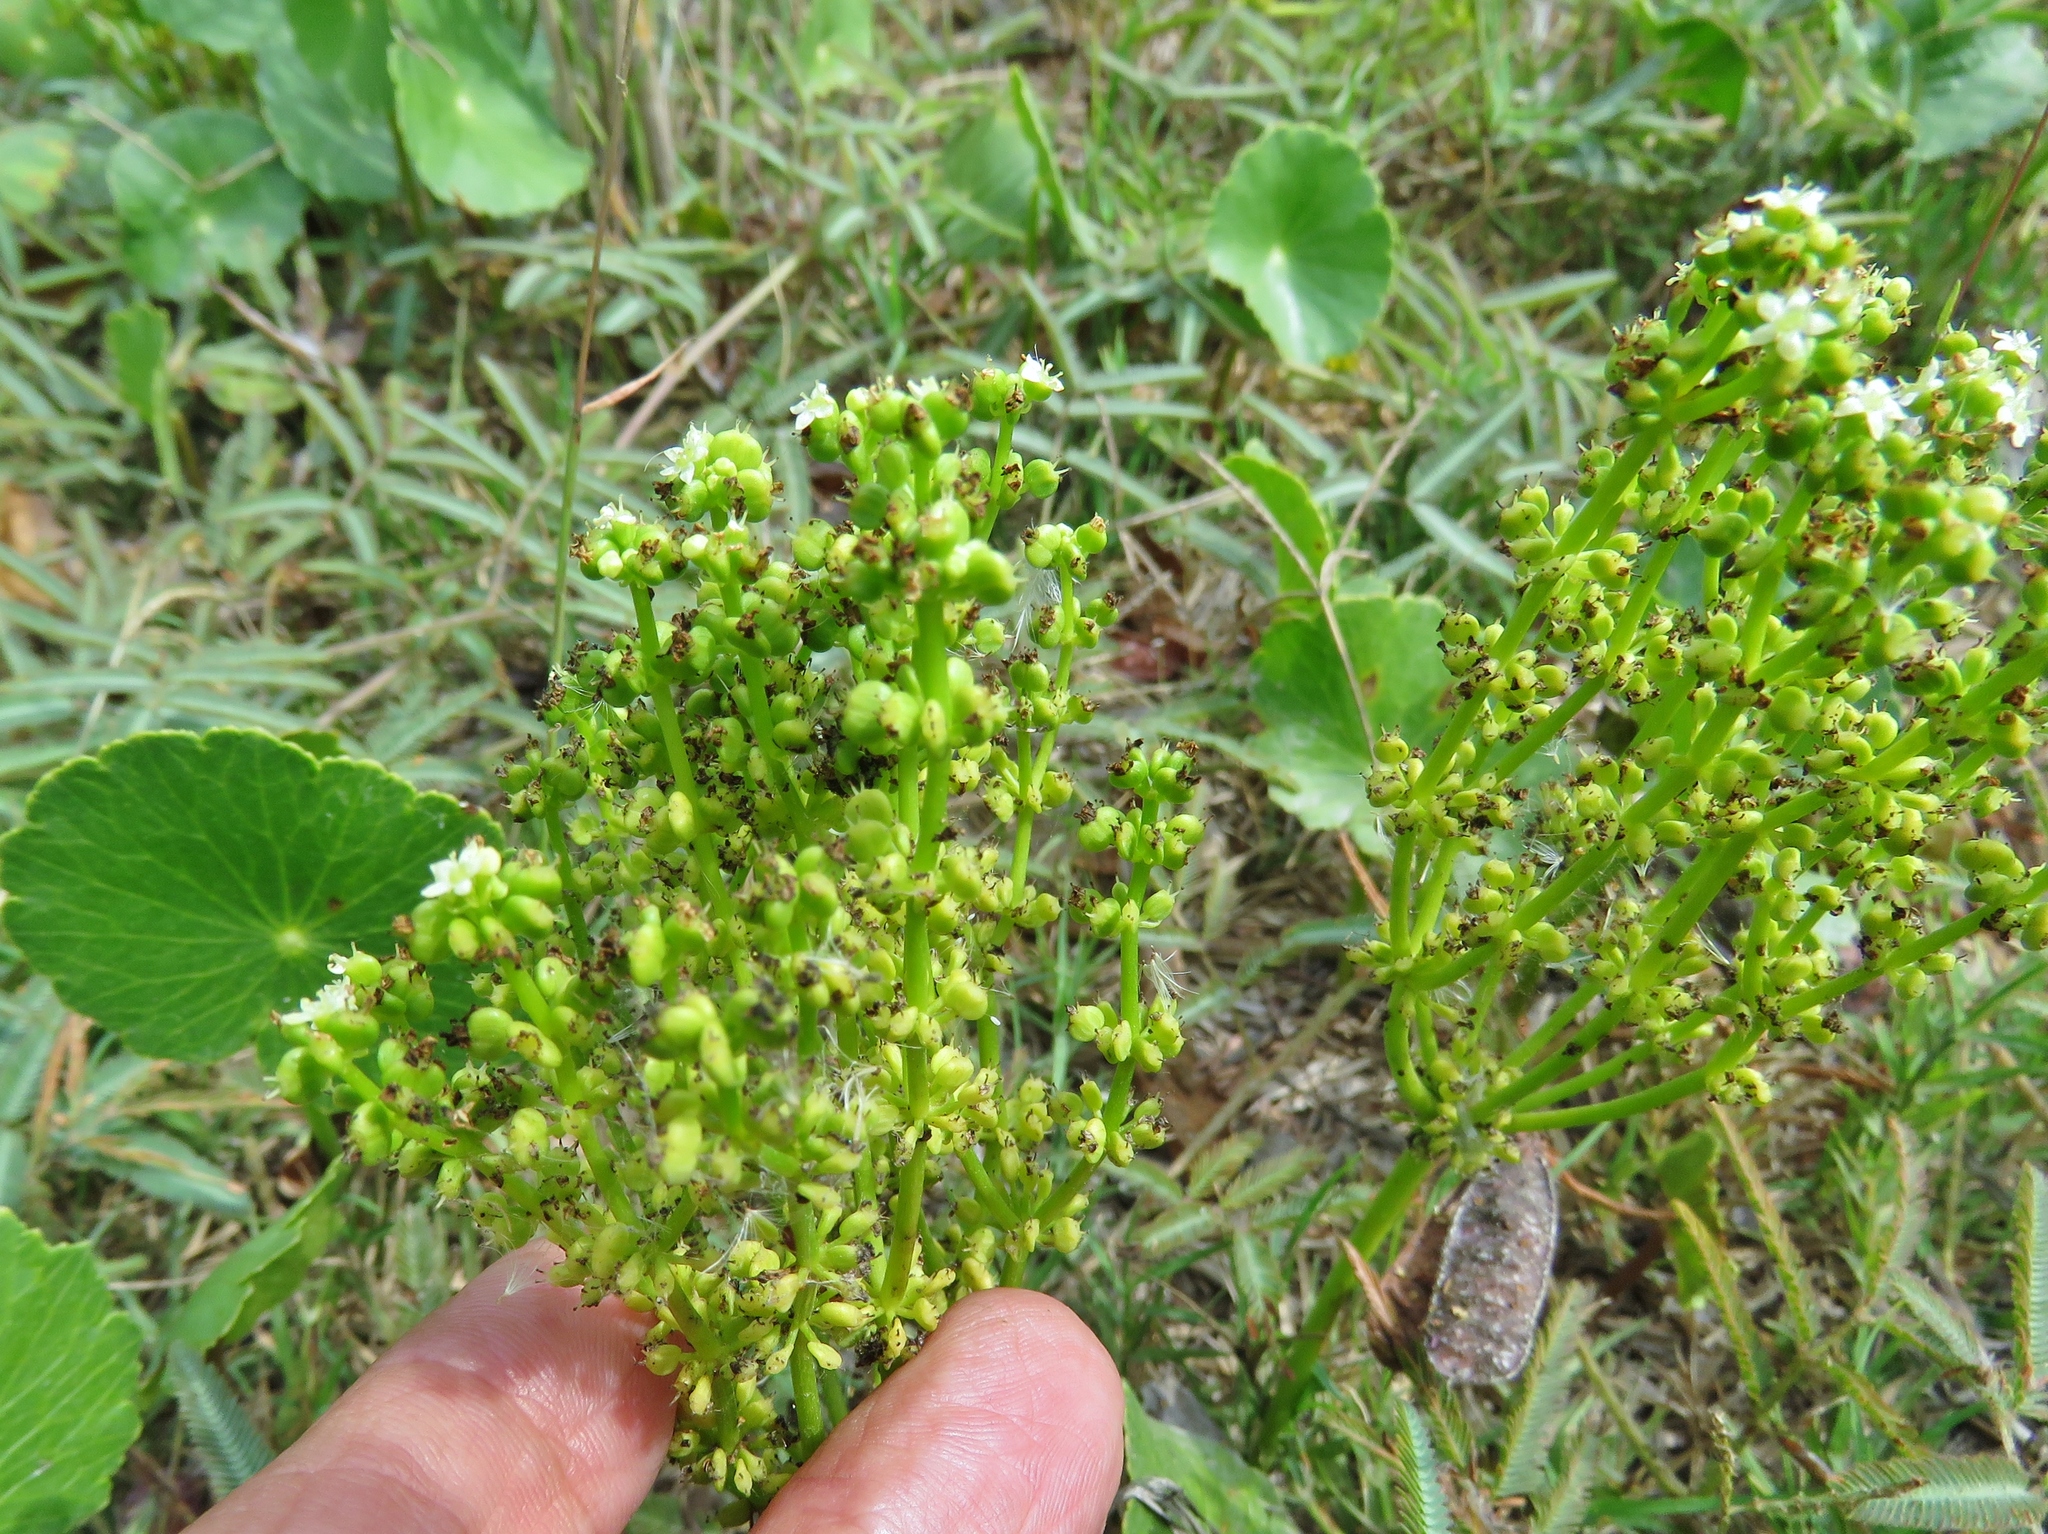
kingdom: Plantae
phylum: Tracheophyta
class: Magnoliopsida
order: Apiales
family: Araliaceae
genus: Hydrocotyle
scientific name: Hydrocotyle bonariensis
